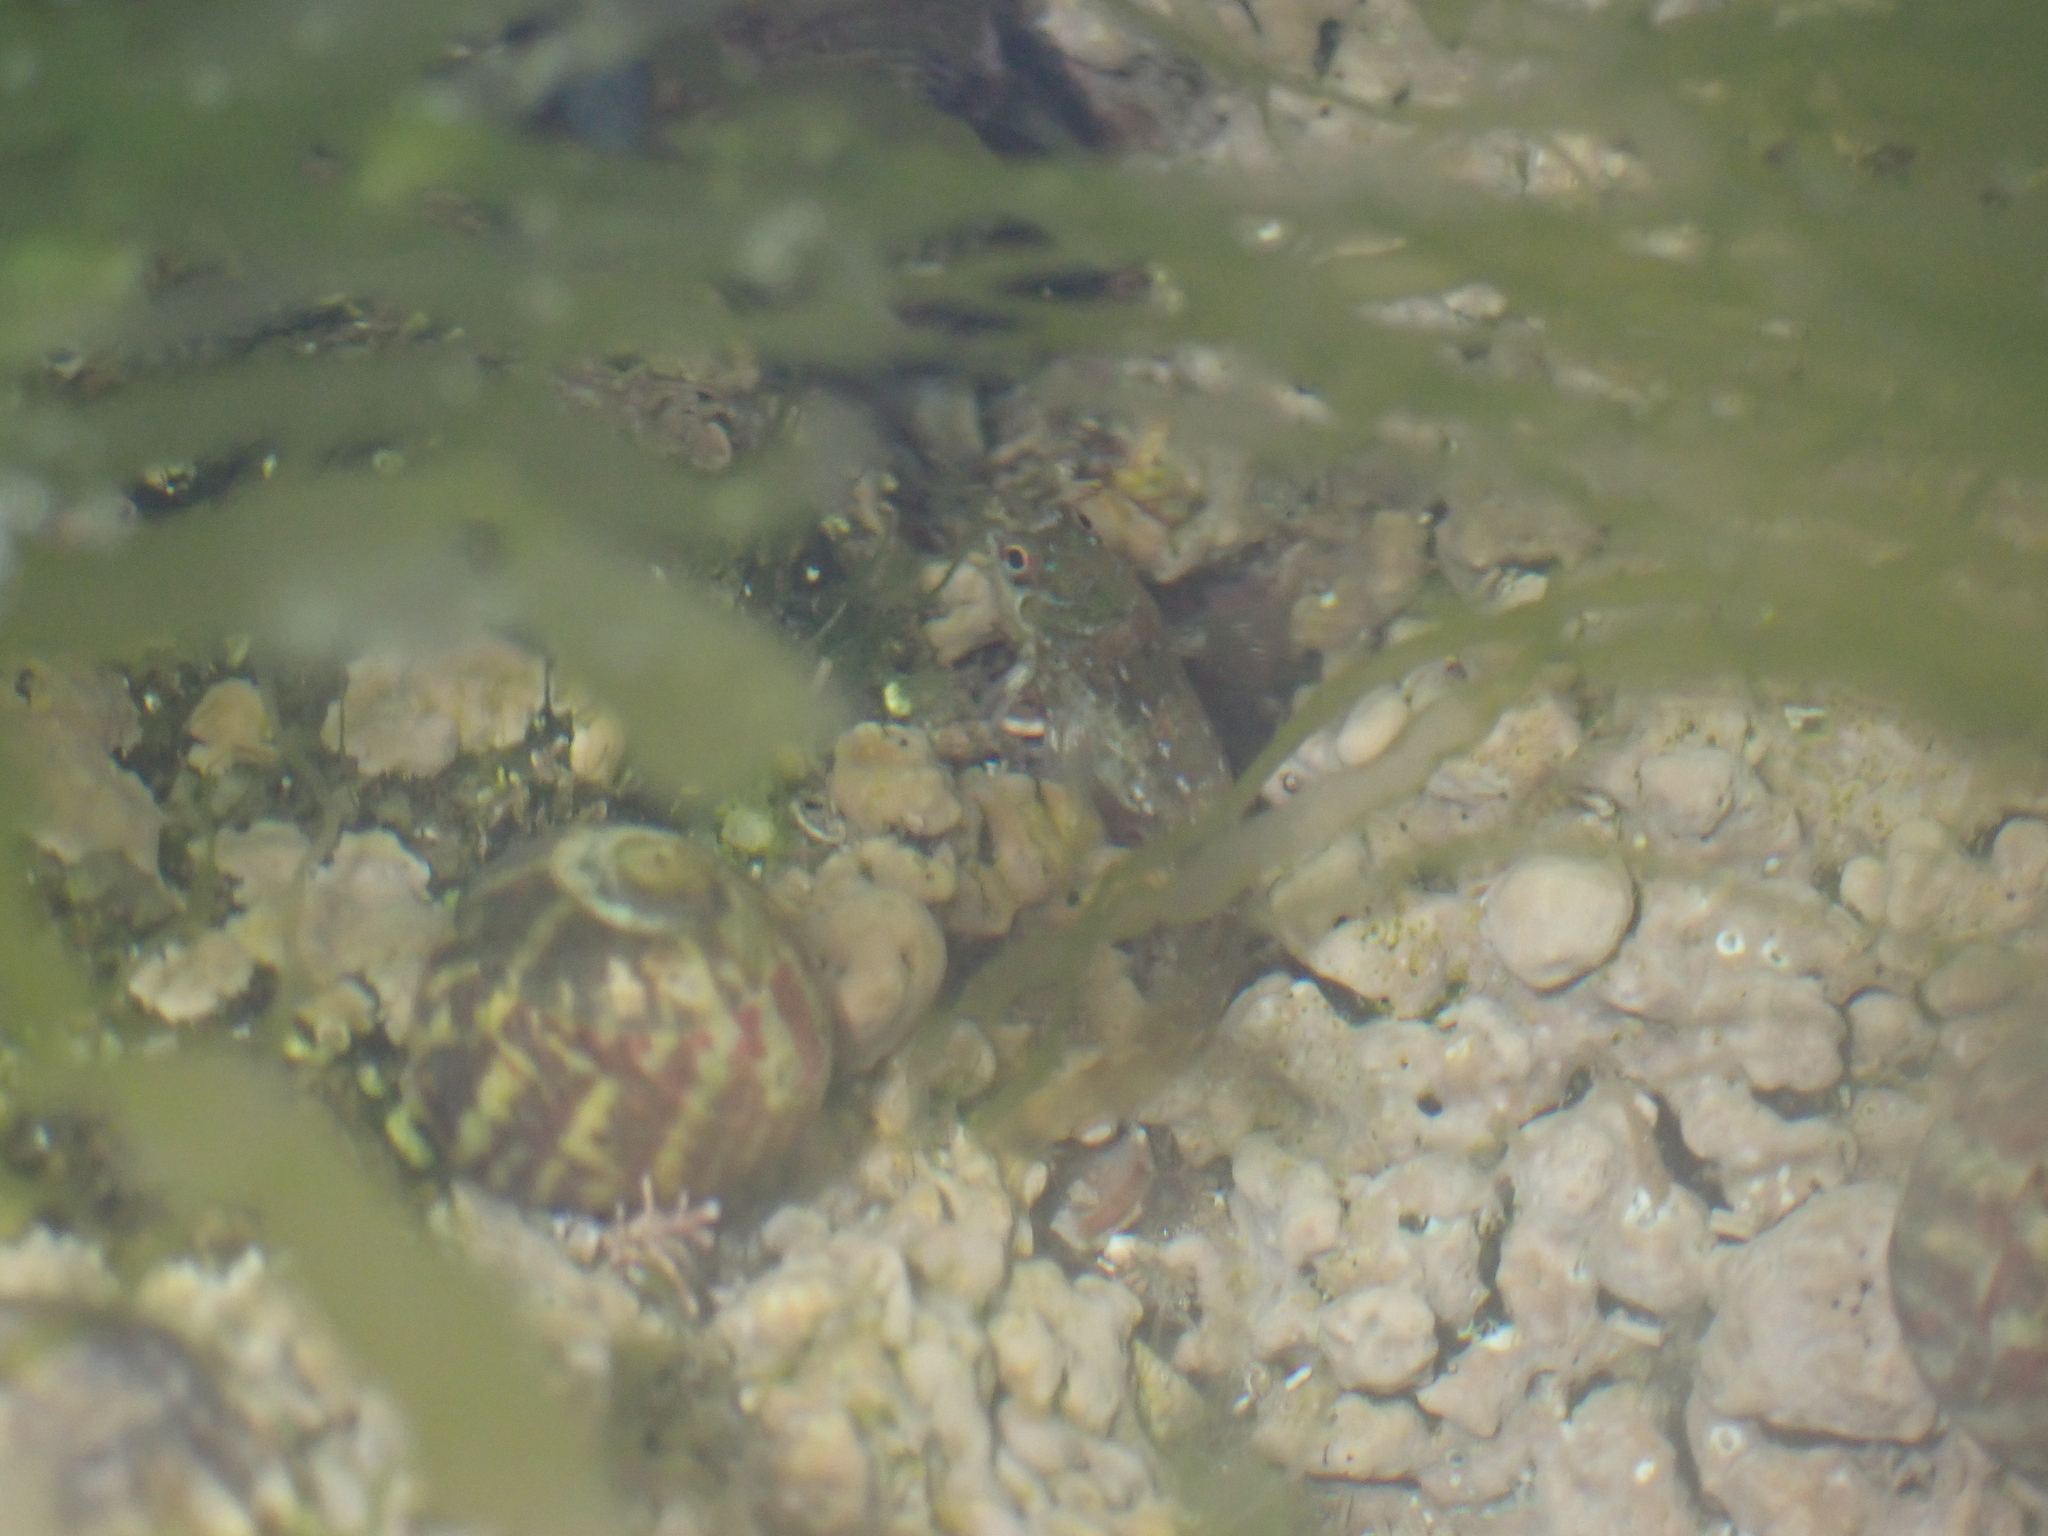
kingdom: Animalia
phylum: Chordata
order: Perciformes
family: Blenniidae
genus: Lipophrys
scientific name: Lipophrys pholis
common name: Shanny
